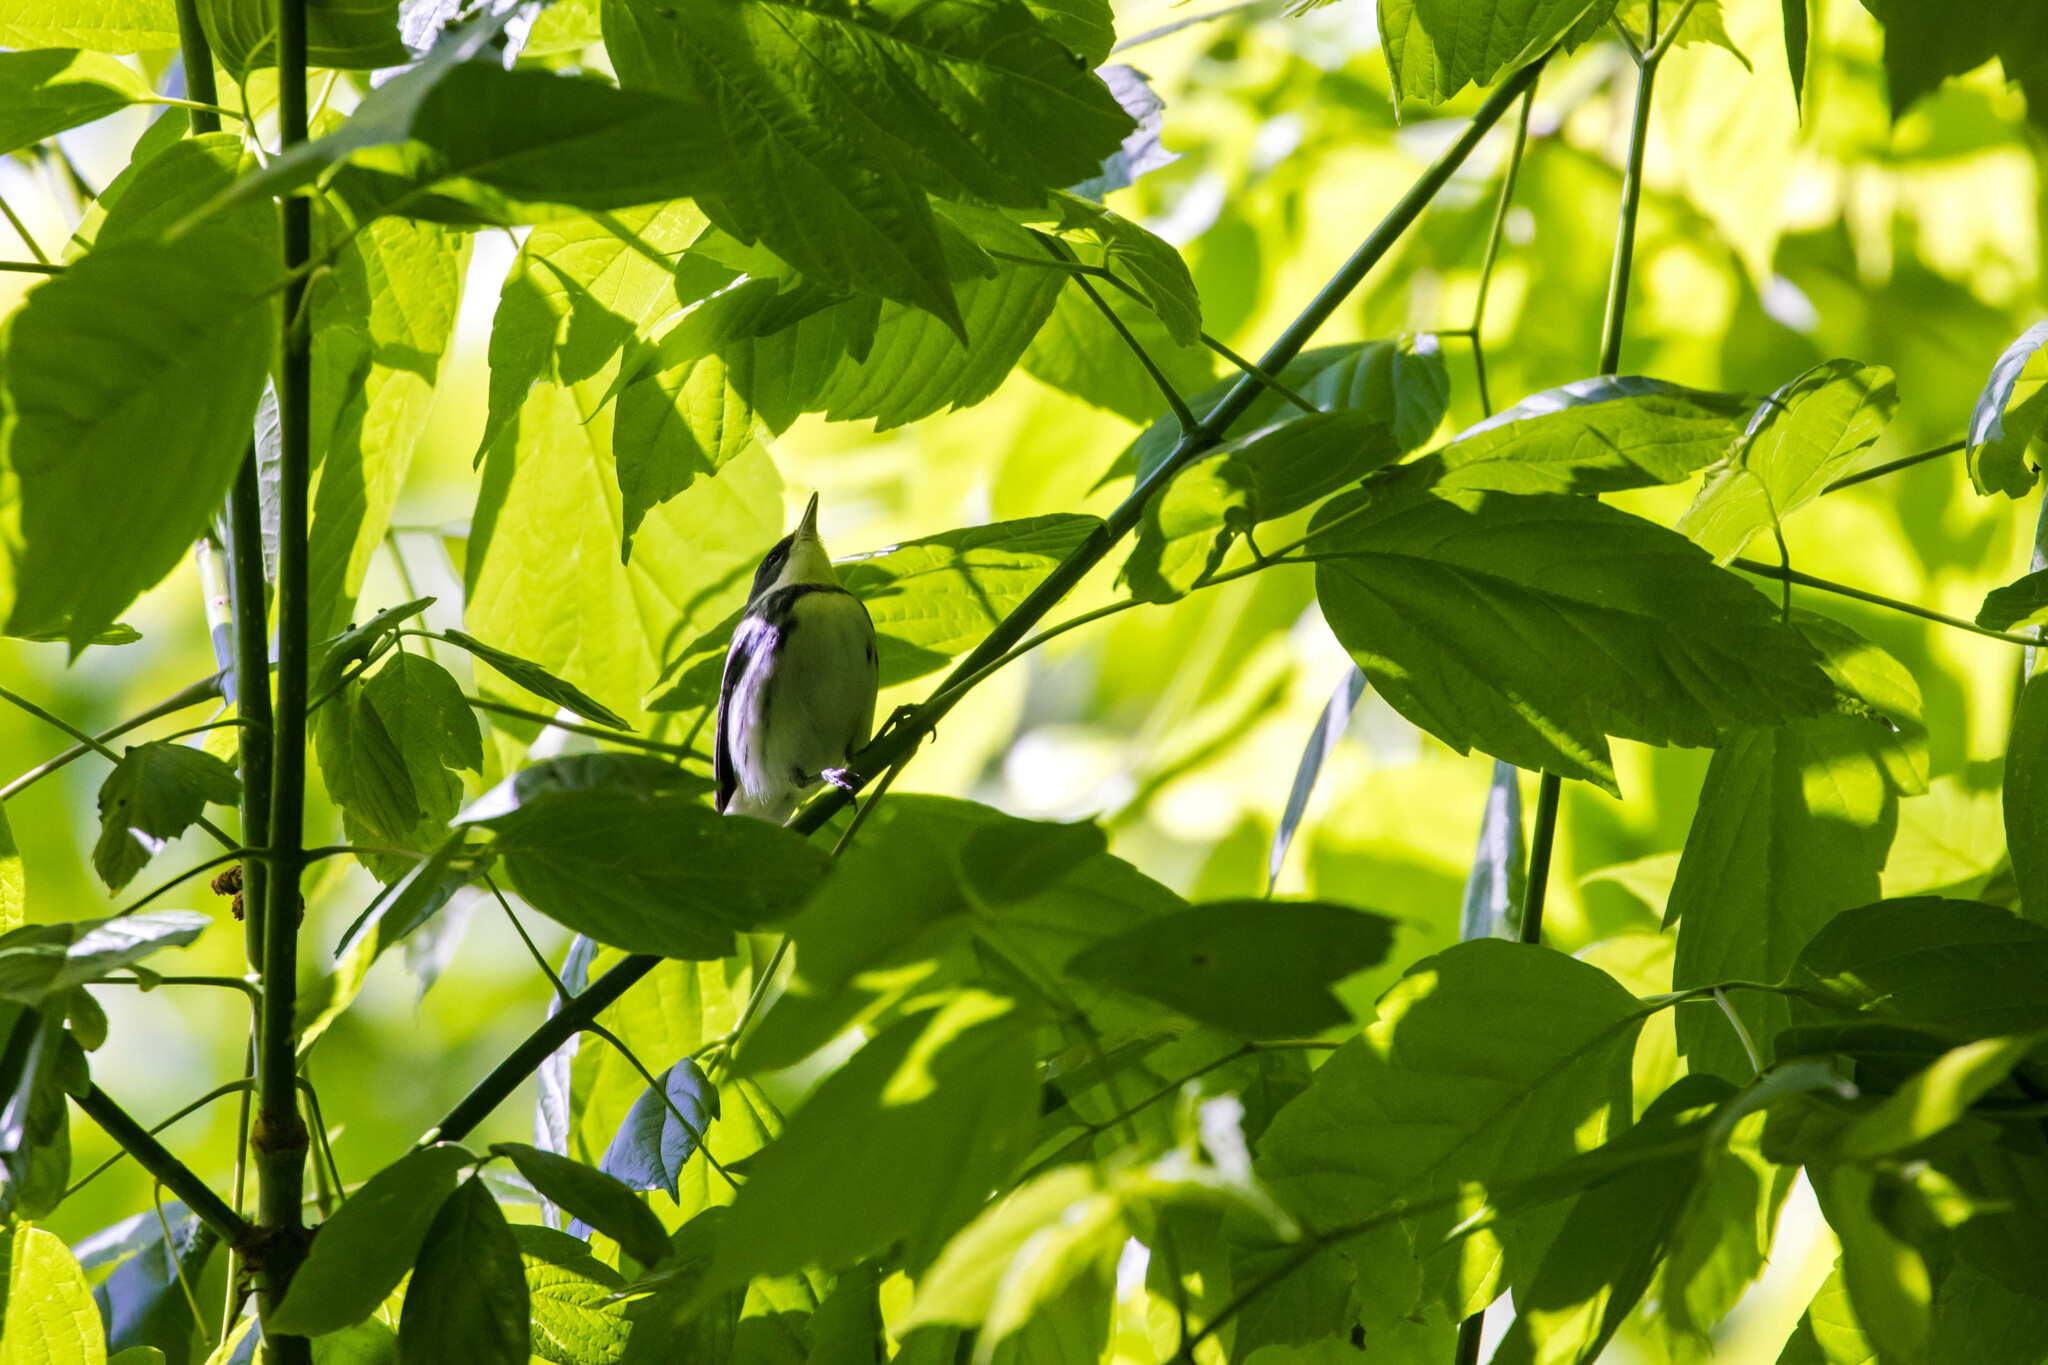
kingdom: Animalia
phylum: Chordata
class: Aves
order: Passeriformes
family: Parulidae
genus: Setophaga
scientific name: Setophaga cerulea
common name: Cerulean warbler
